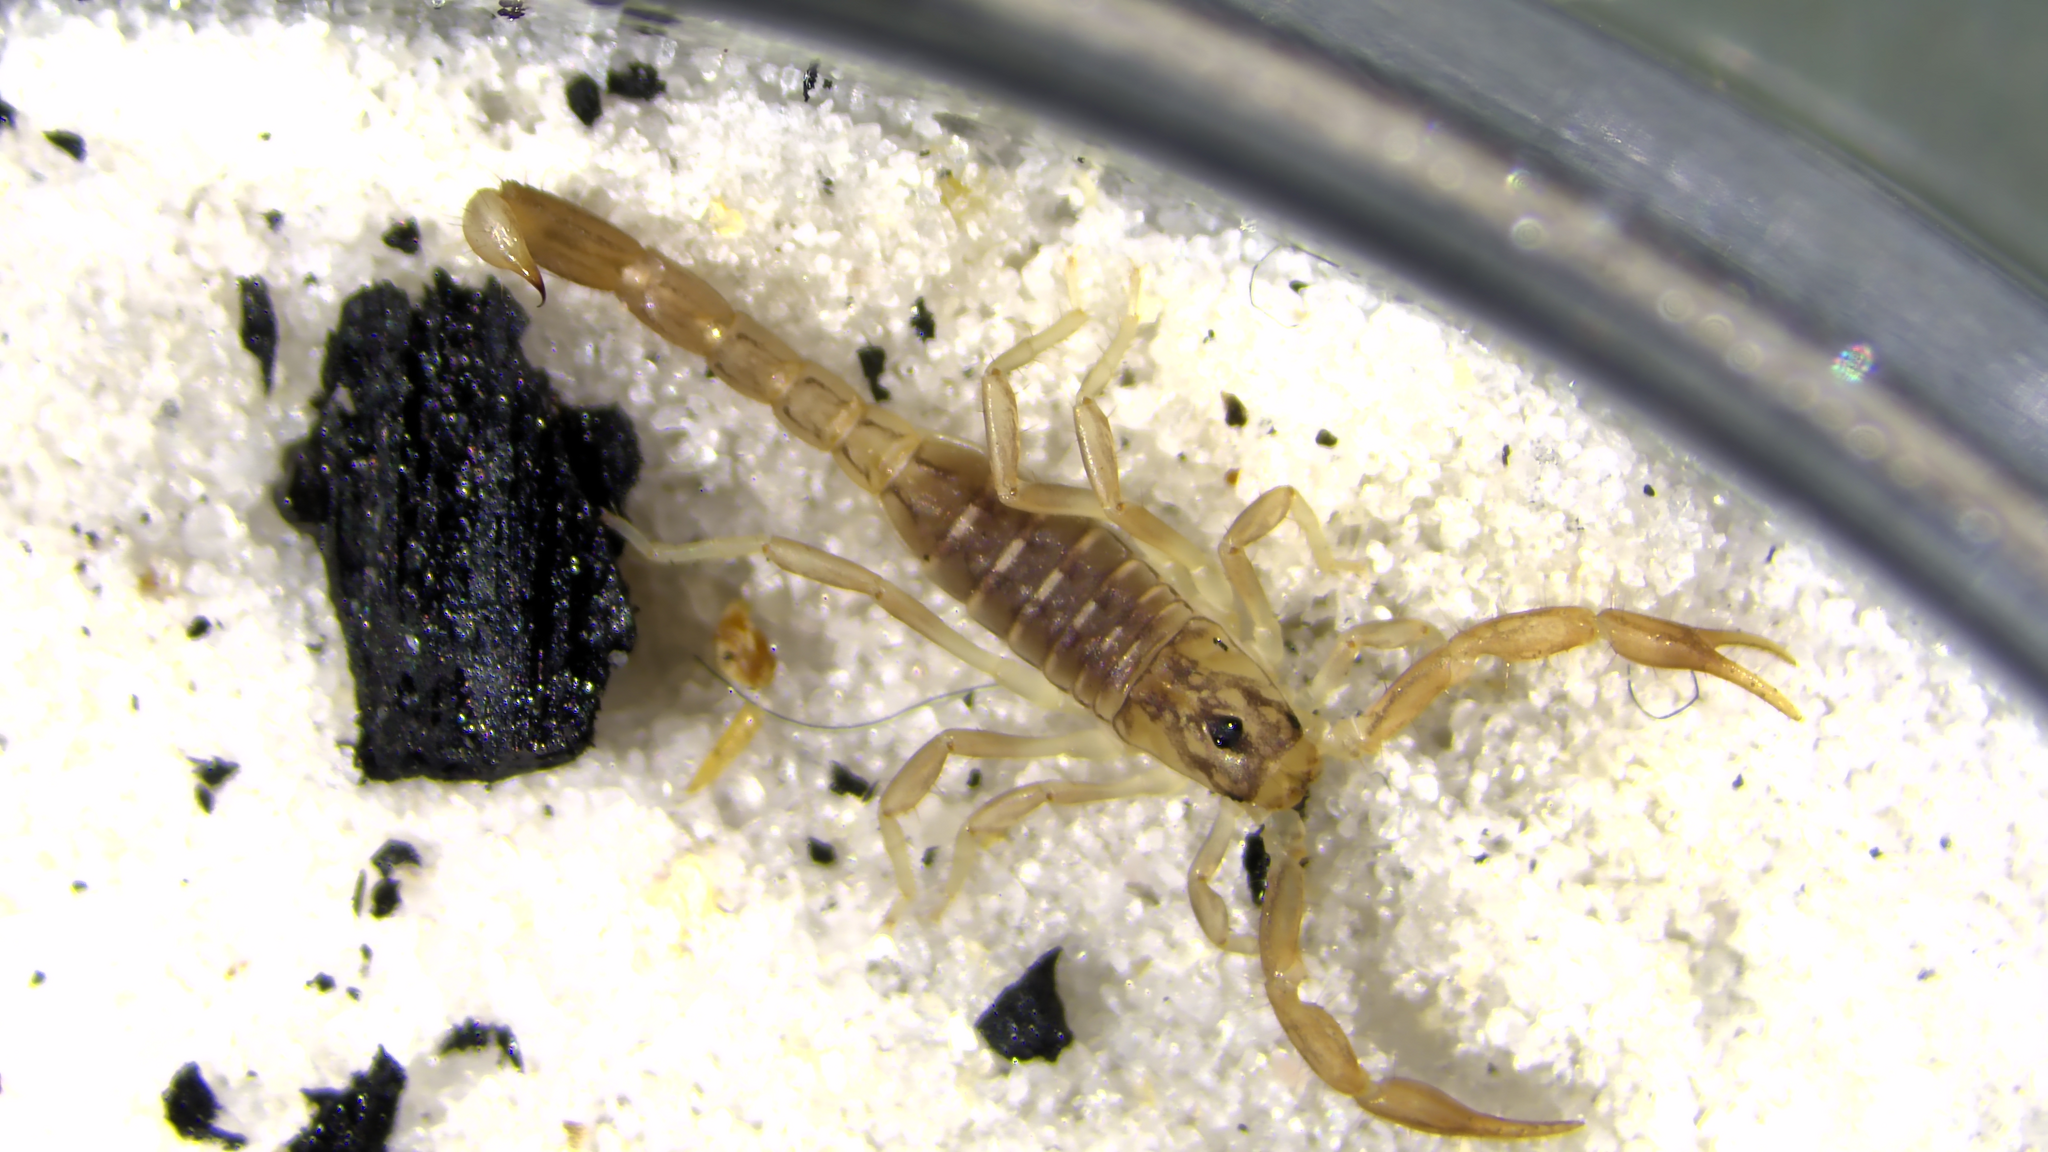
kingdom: Animalia
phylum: Arthropoda
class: Arachnida
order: Scorpiones
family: Vaejovidae
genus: Paravaejovis
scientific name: Paravaejovis spinigerus
